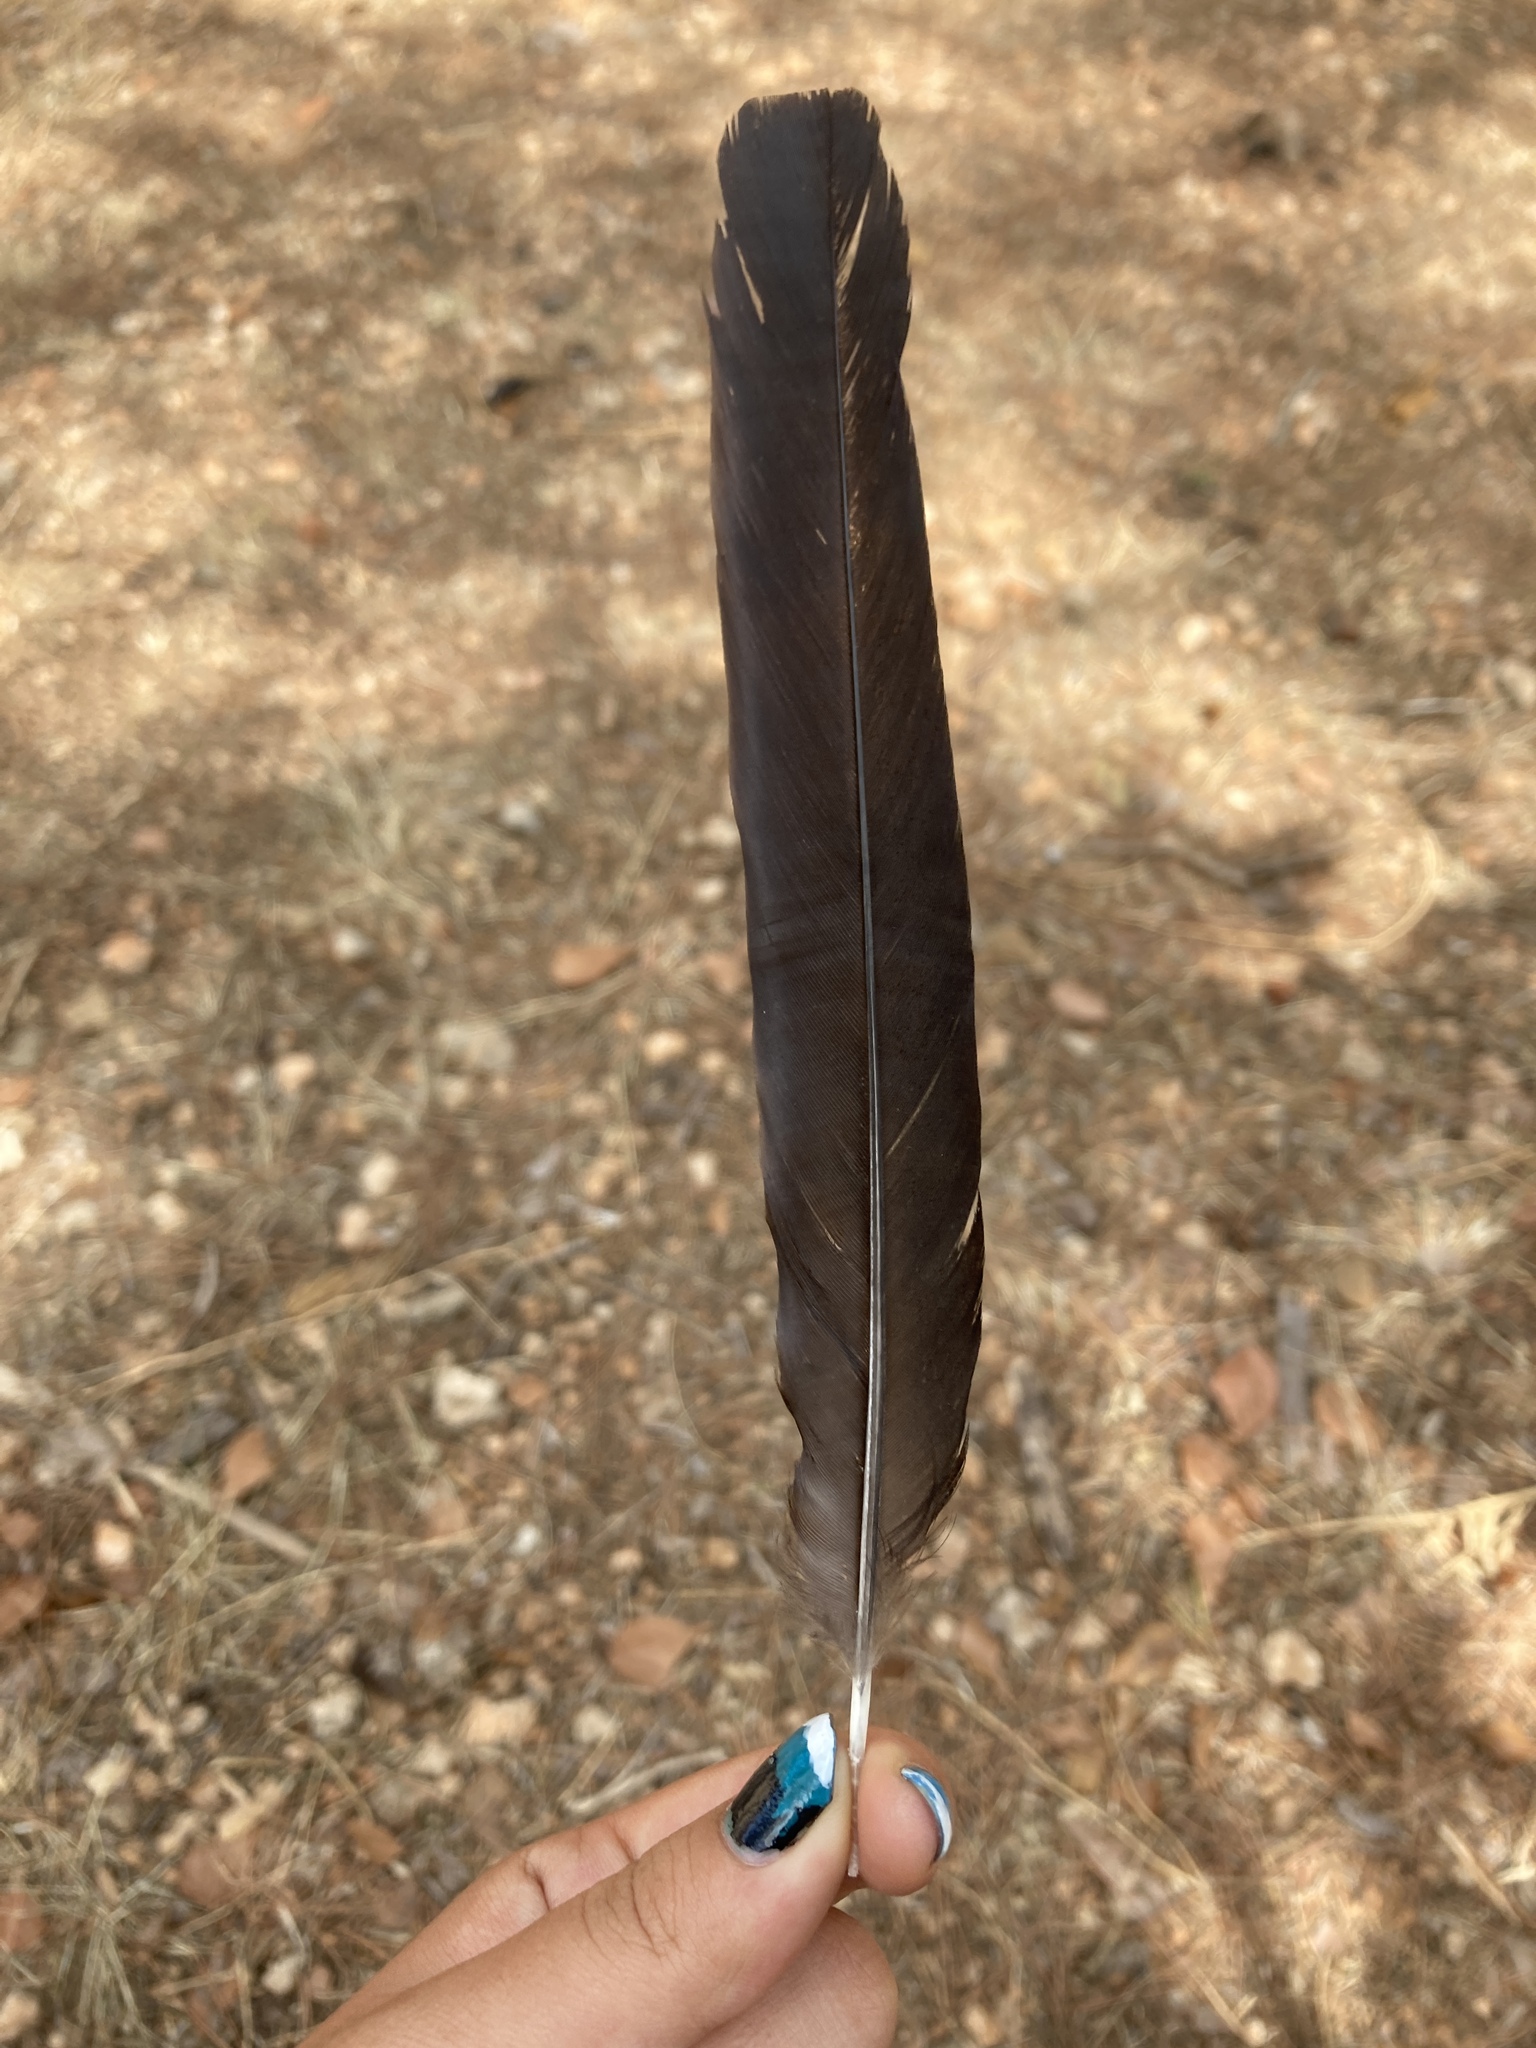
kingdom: Animalia
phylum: Chordata
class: Aves
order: Passeriformes
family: Corvidae
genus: Pica
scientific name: Pica pica
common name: Eurasian magpie
